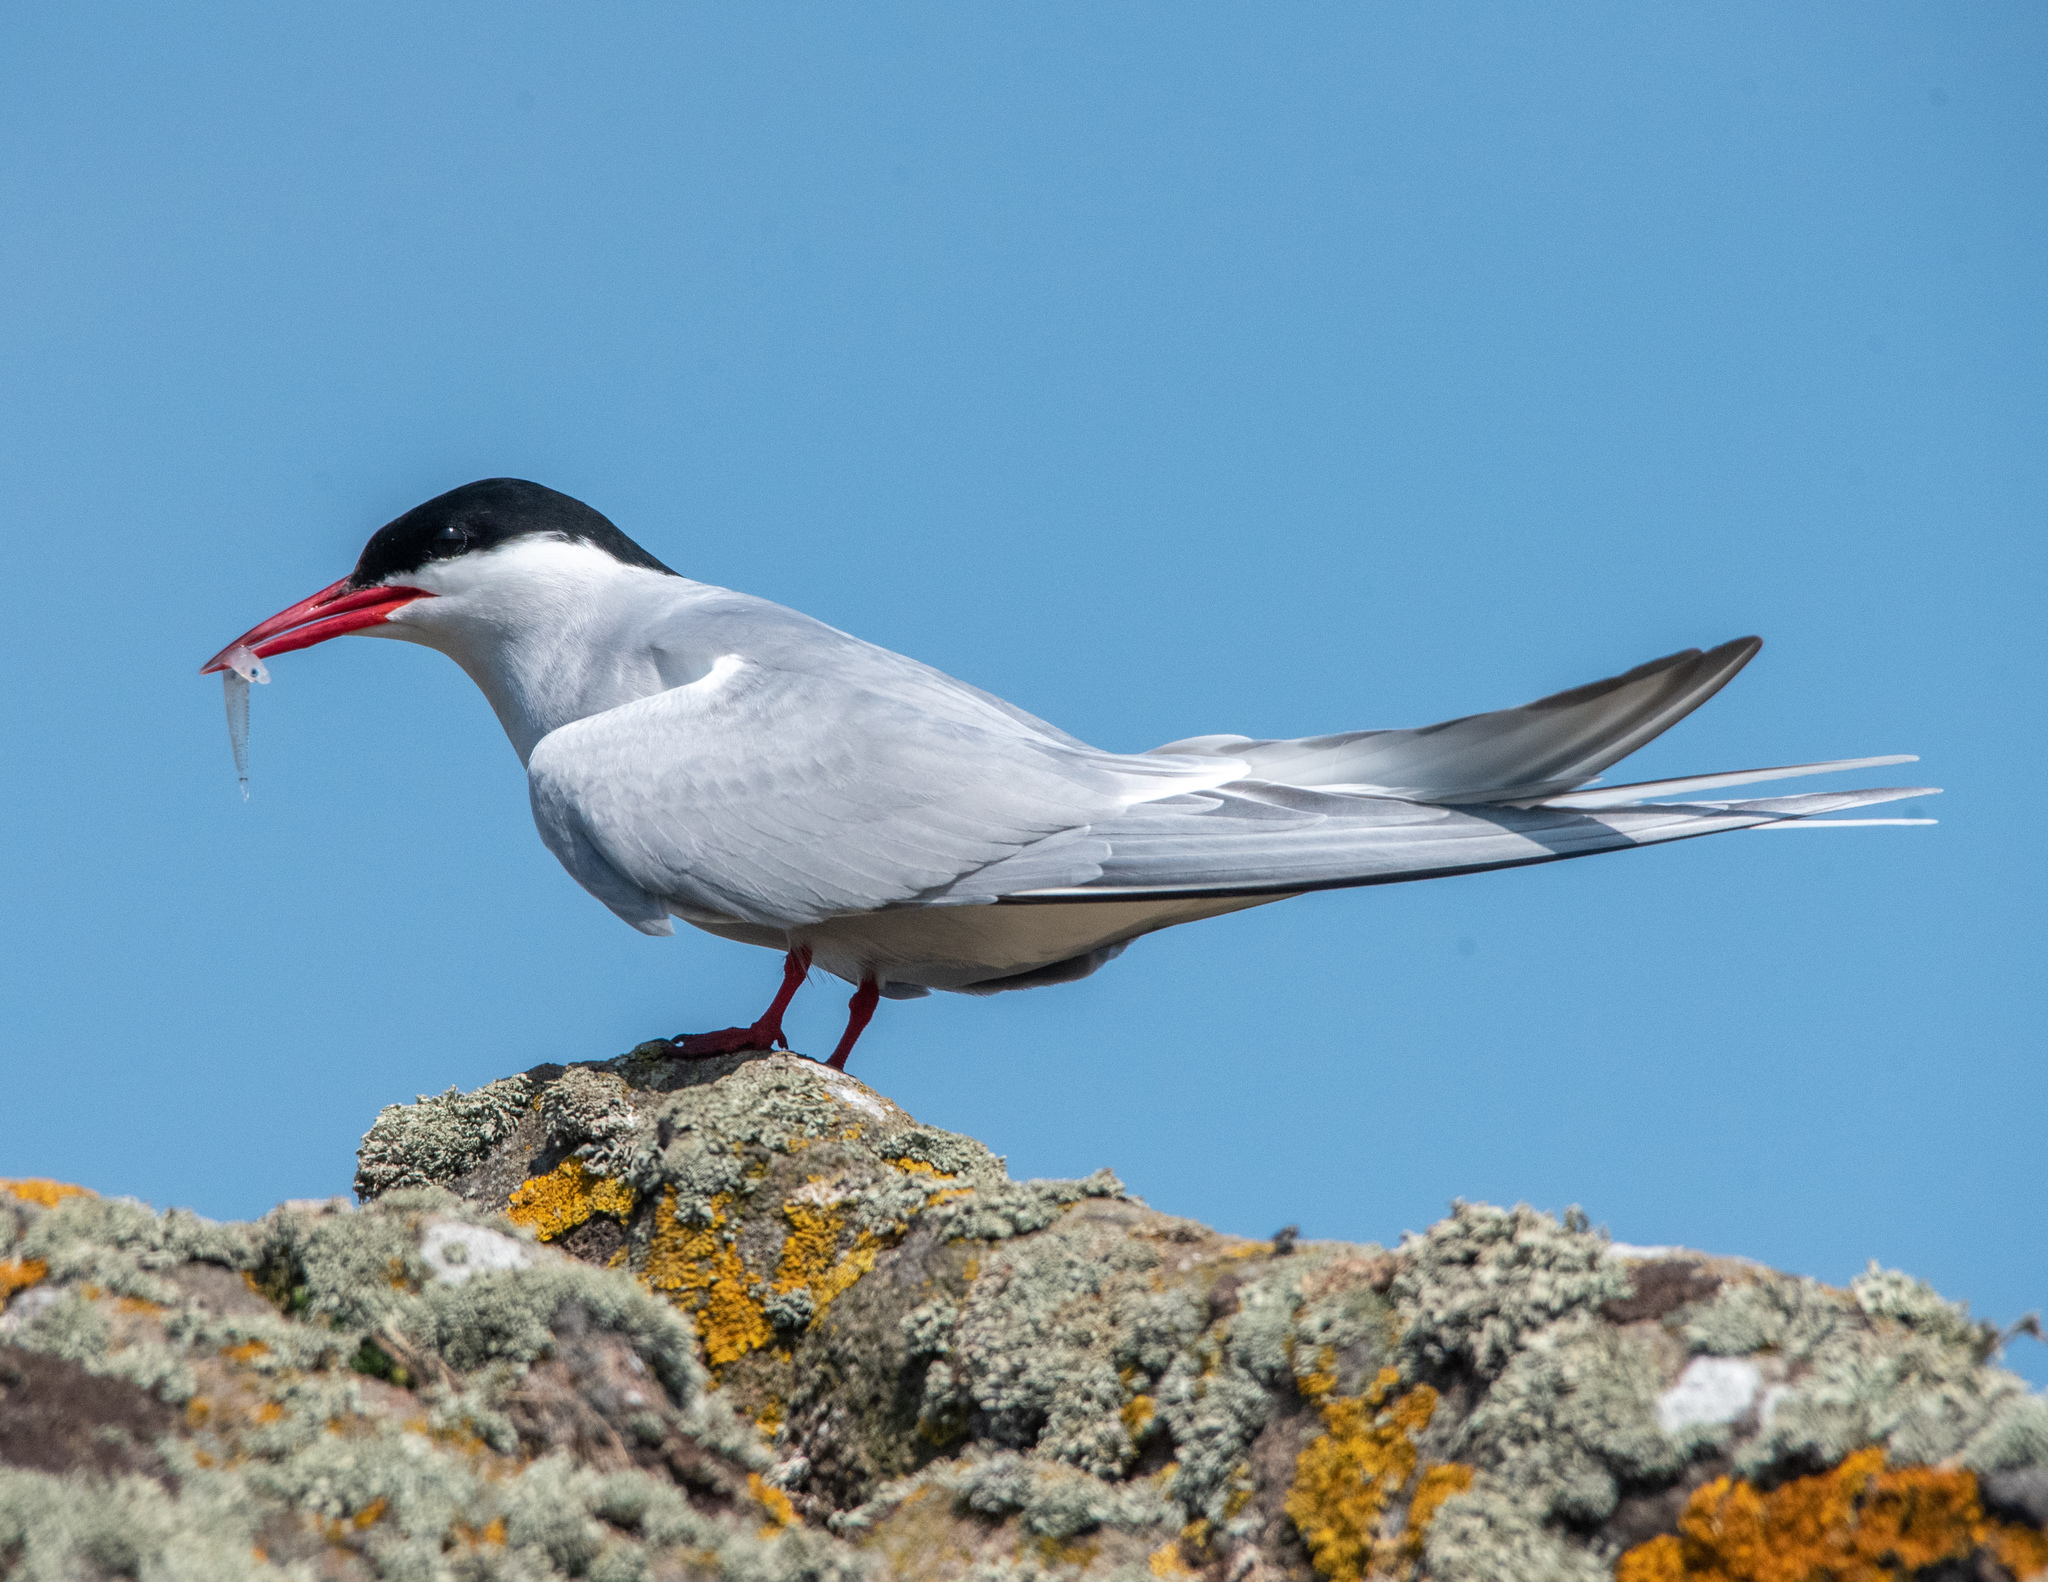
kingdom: Animalia
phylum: Chordata
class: Aves
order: Charadriiformes
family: Laridae
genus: Sterna
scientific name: Sterna paradisaea
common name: Arctic tern
